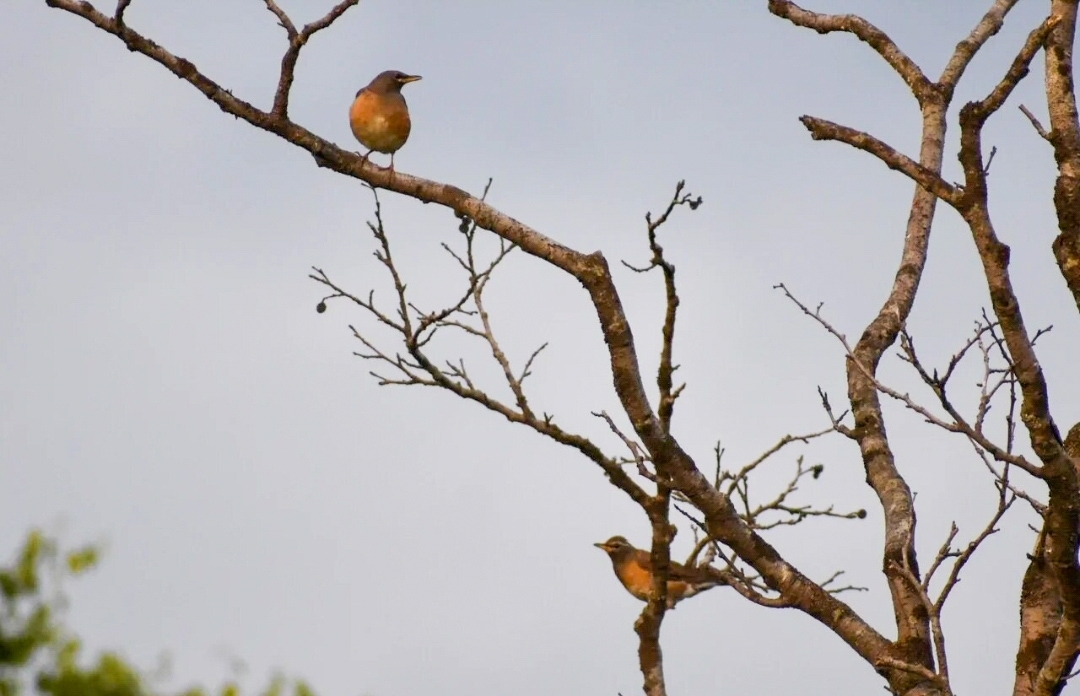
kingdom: Animalia
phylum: Chordata
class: Aves
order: Passeriformes
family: Turdidae
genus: Turdus
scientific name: Turdus obscurus
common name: Eyebrowed thrush
